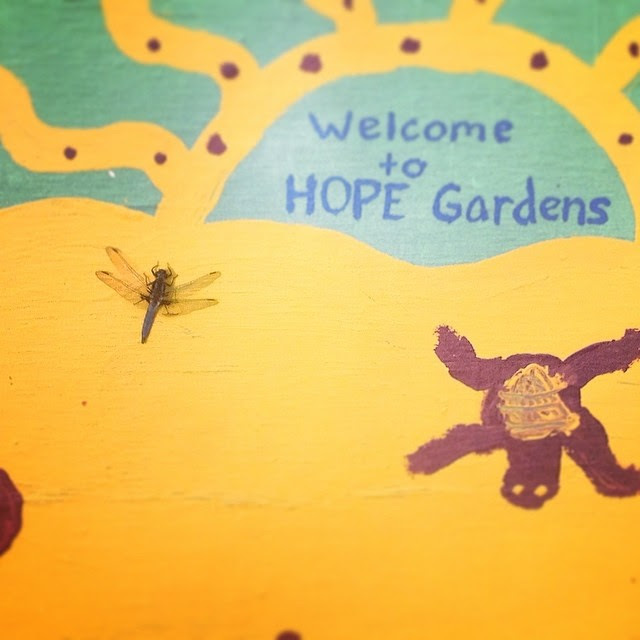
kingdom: Animalia
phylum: Arthropoda
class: Insecta
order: Odonata
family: Libellulidae
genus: Ladona
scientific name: Ladona deplanata
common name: Blue corporal
